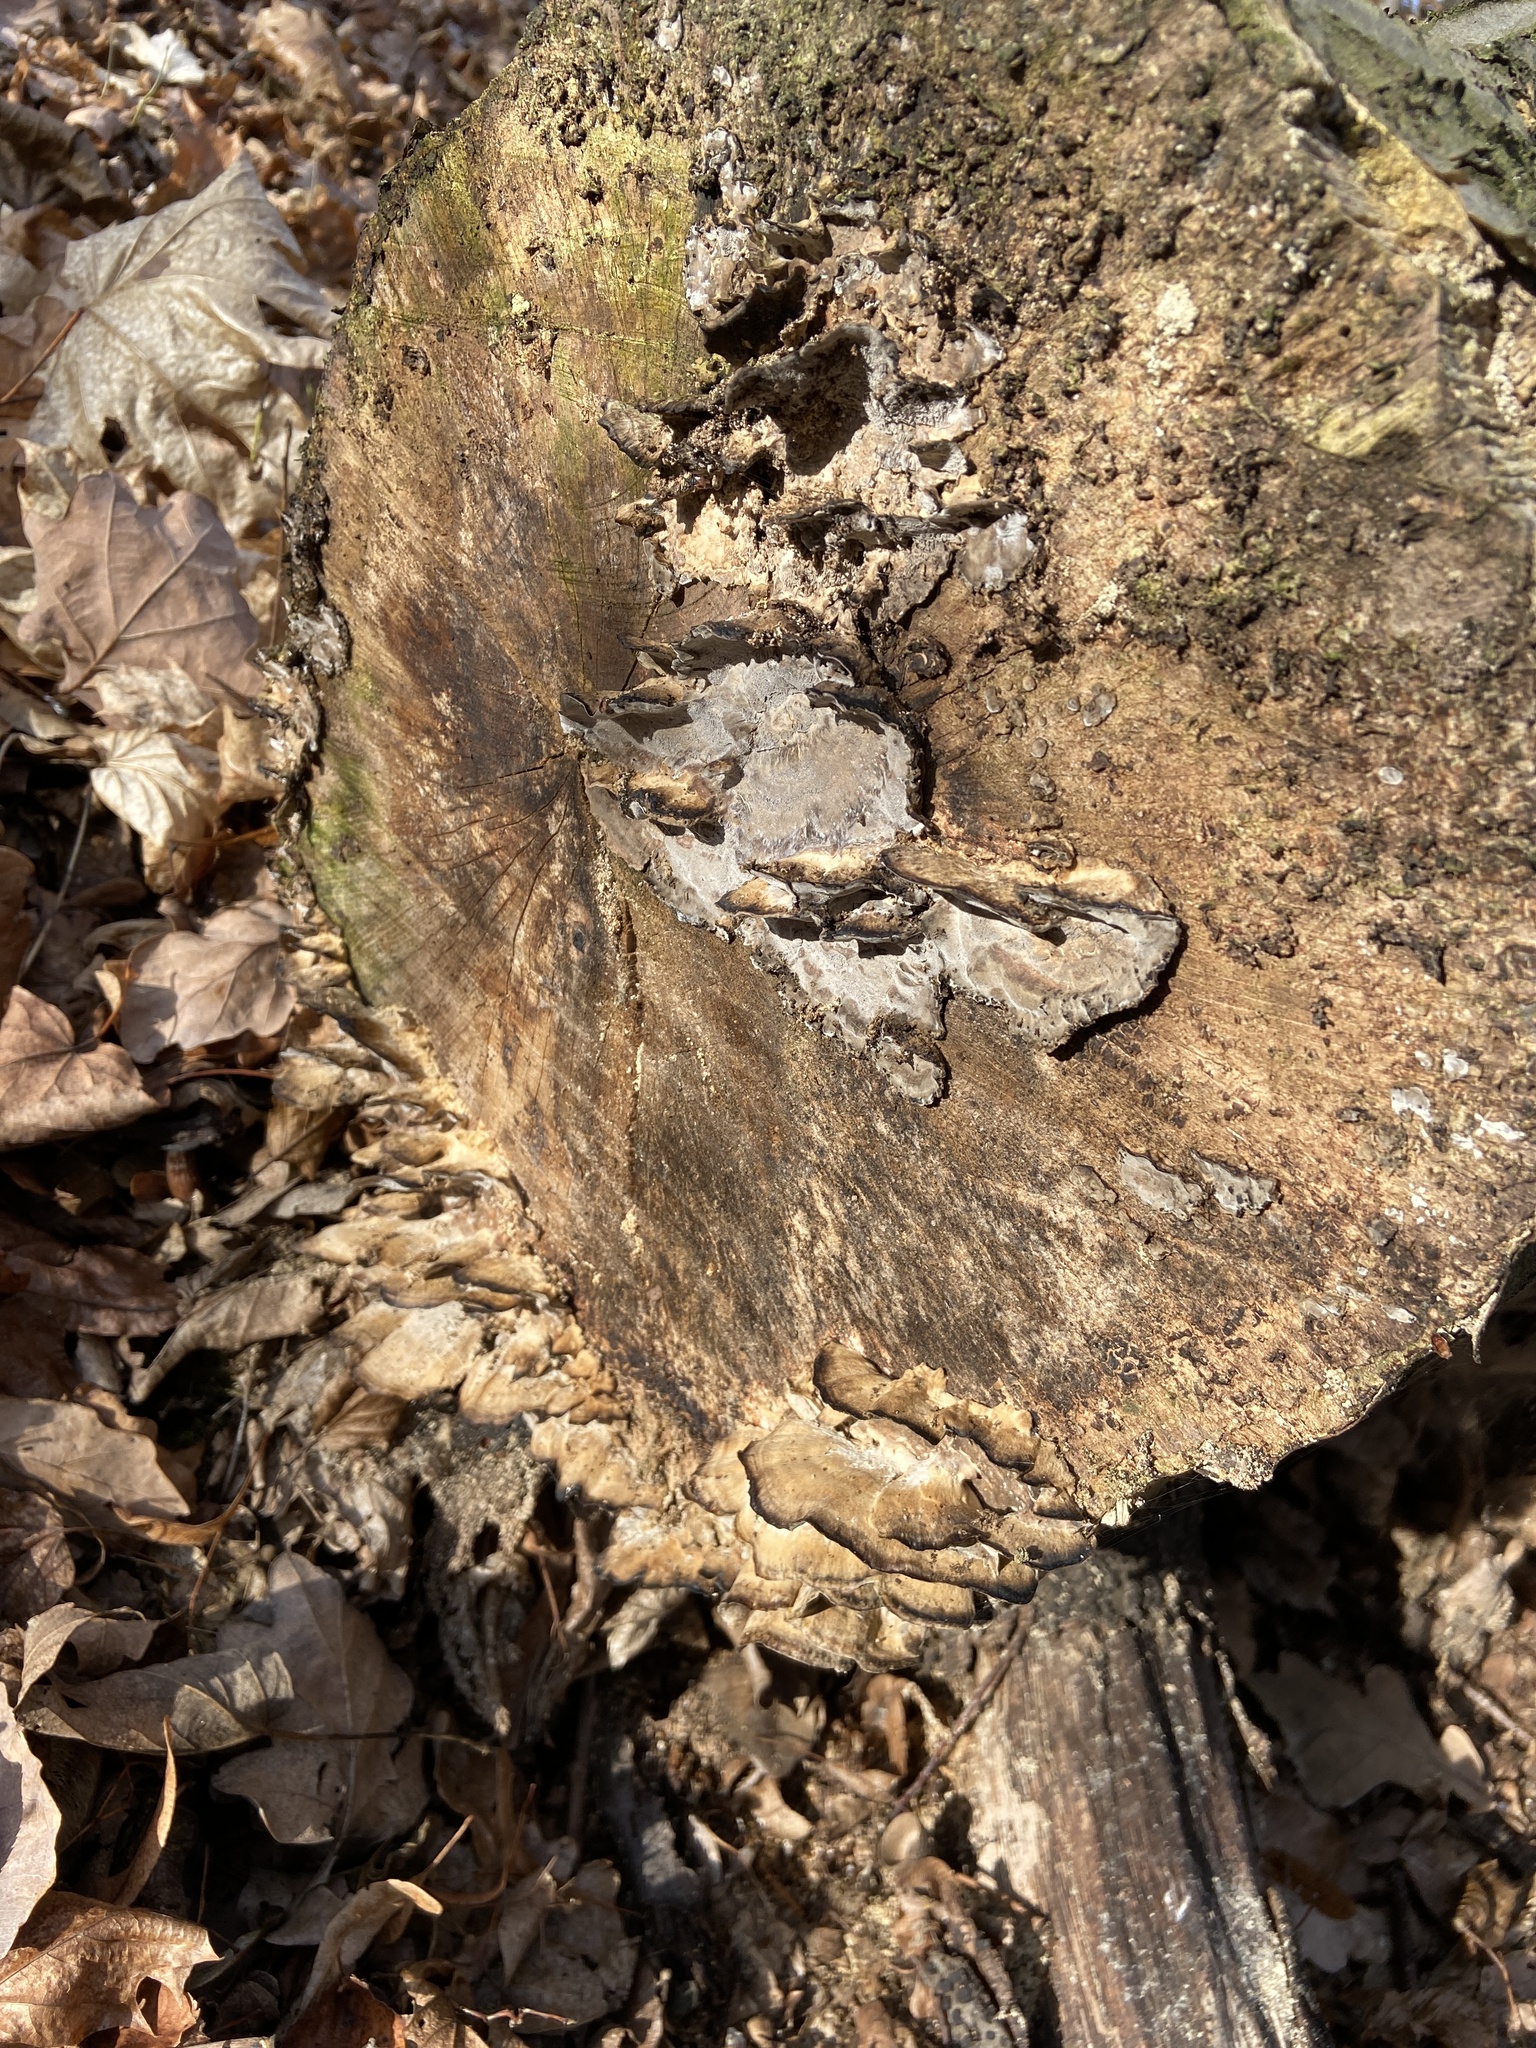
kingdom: Fungi
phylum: Basidiomycota
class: Agaricomycetes
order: Polyporales
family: Phanerochaetaceae
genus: Bjerkandera
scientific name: Bjerkandera adusta
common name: Smoky bracket
